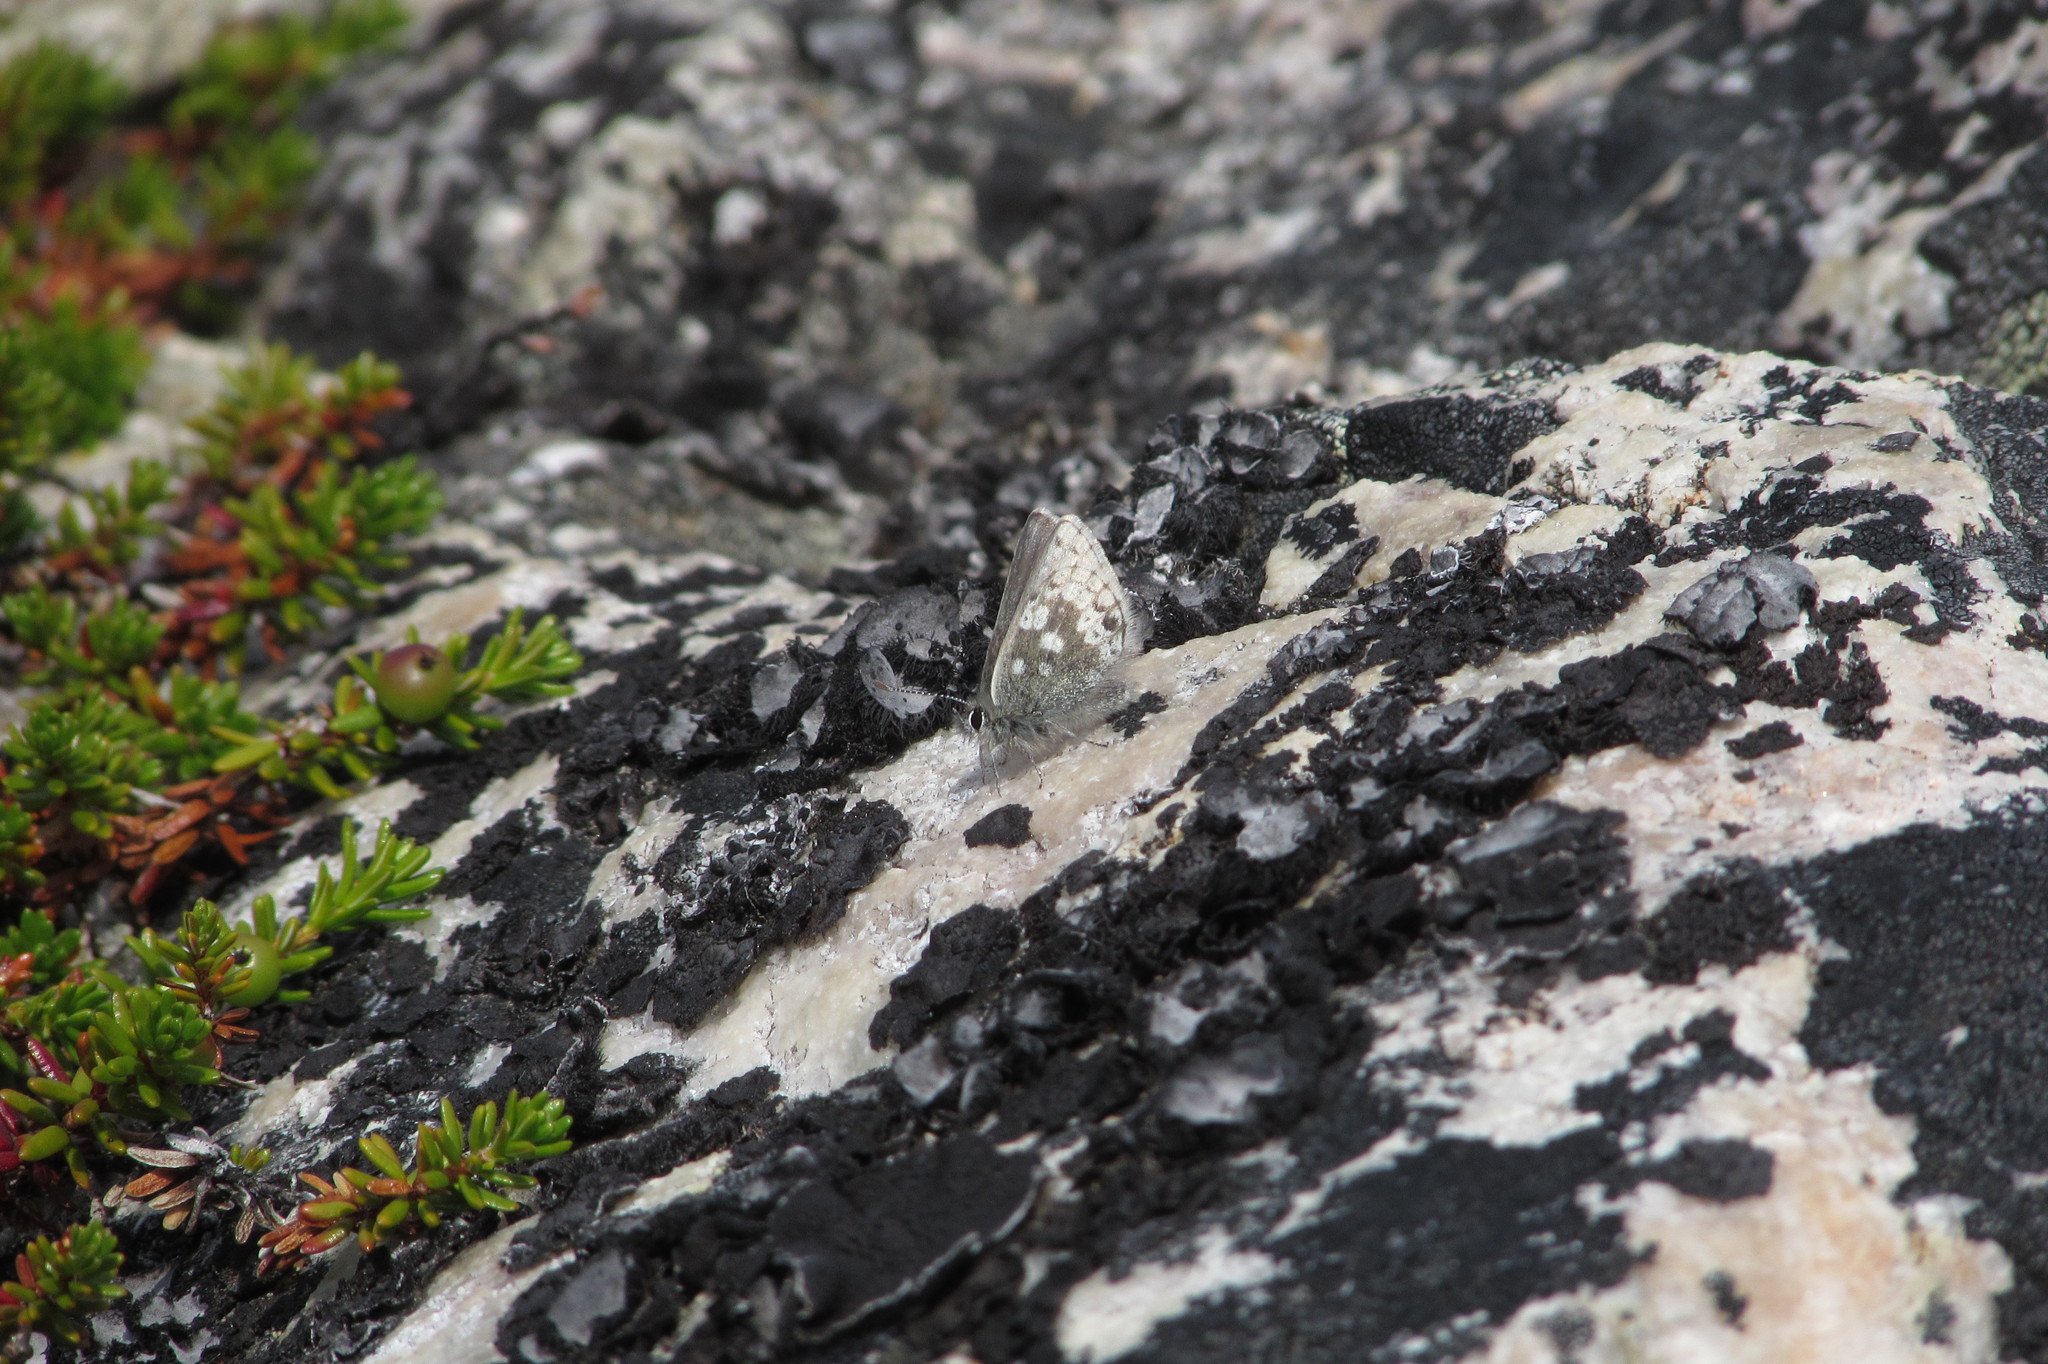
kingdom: Animalia
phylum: Arthropoda
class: Insecta
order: Lepidoptera
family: Lycaenidae
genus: Agriades
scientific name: Agriades glandon
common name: Glandon blue
